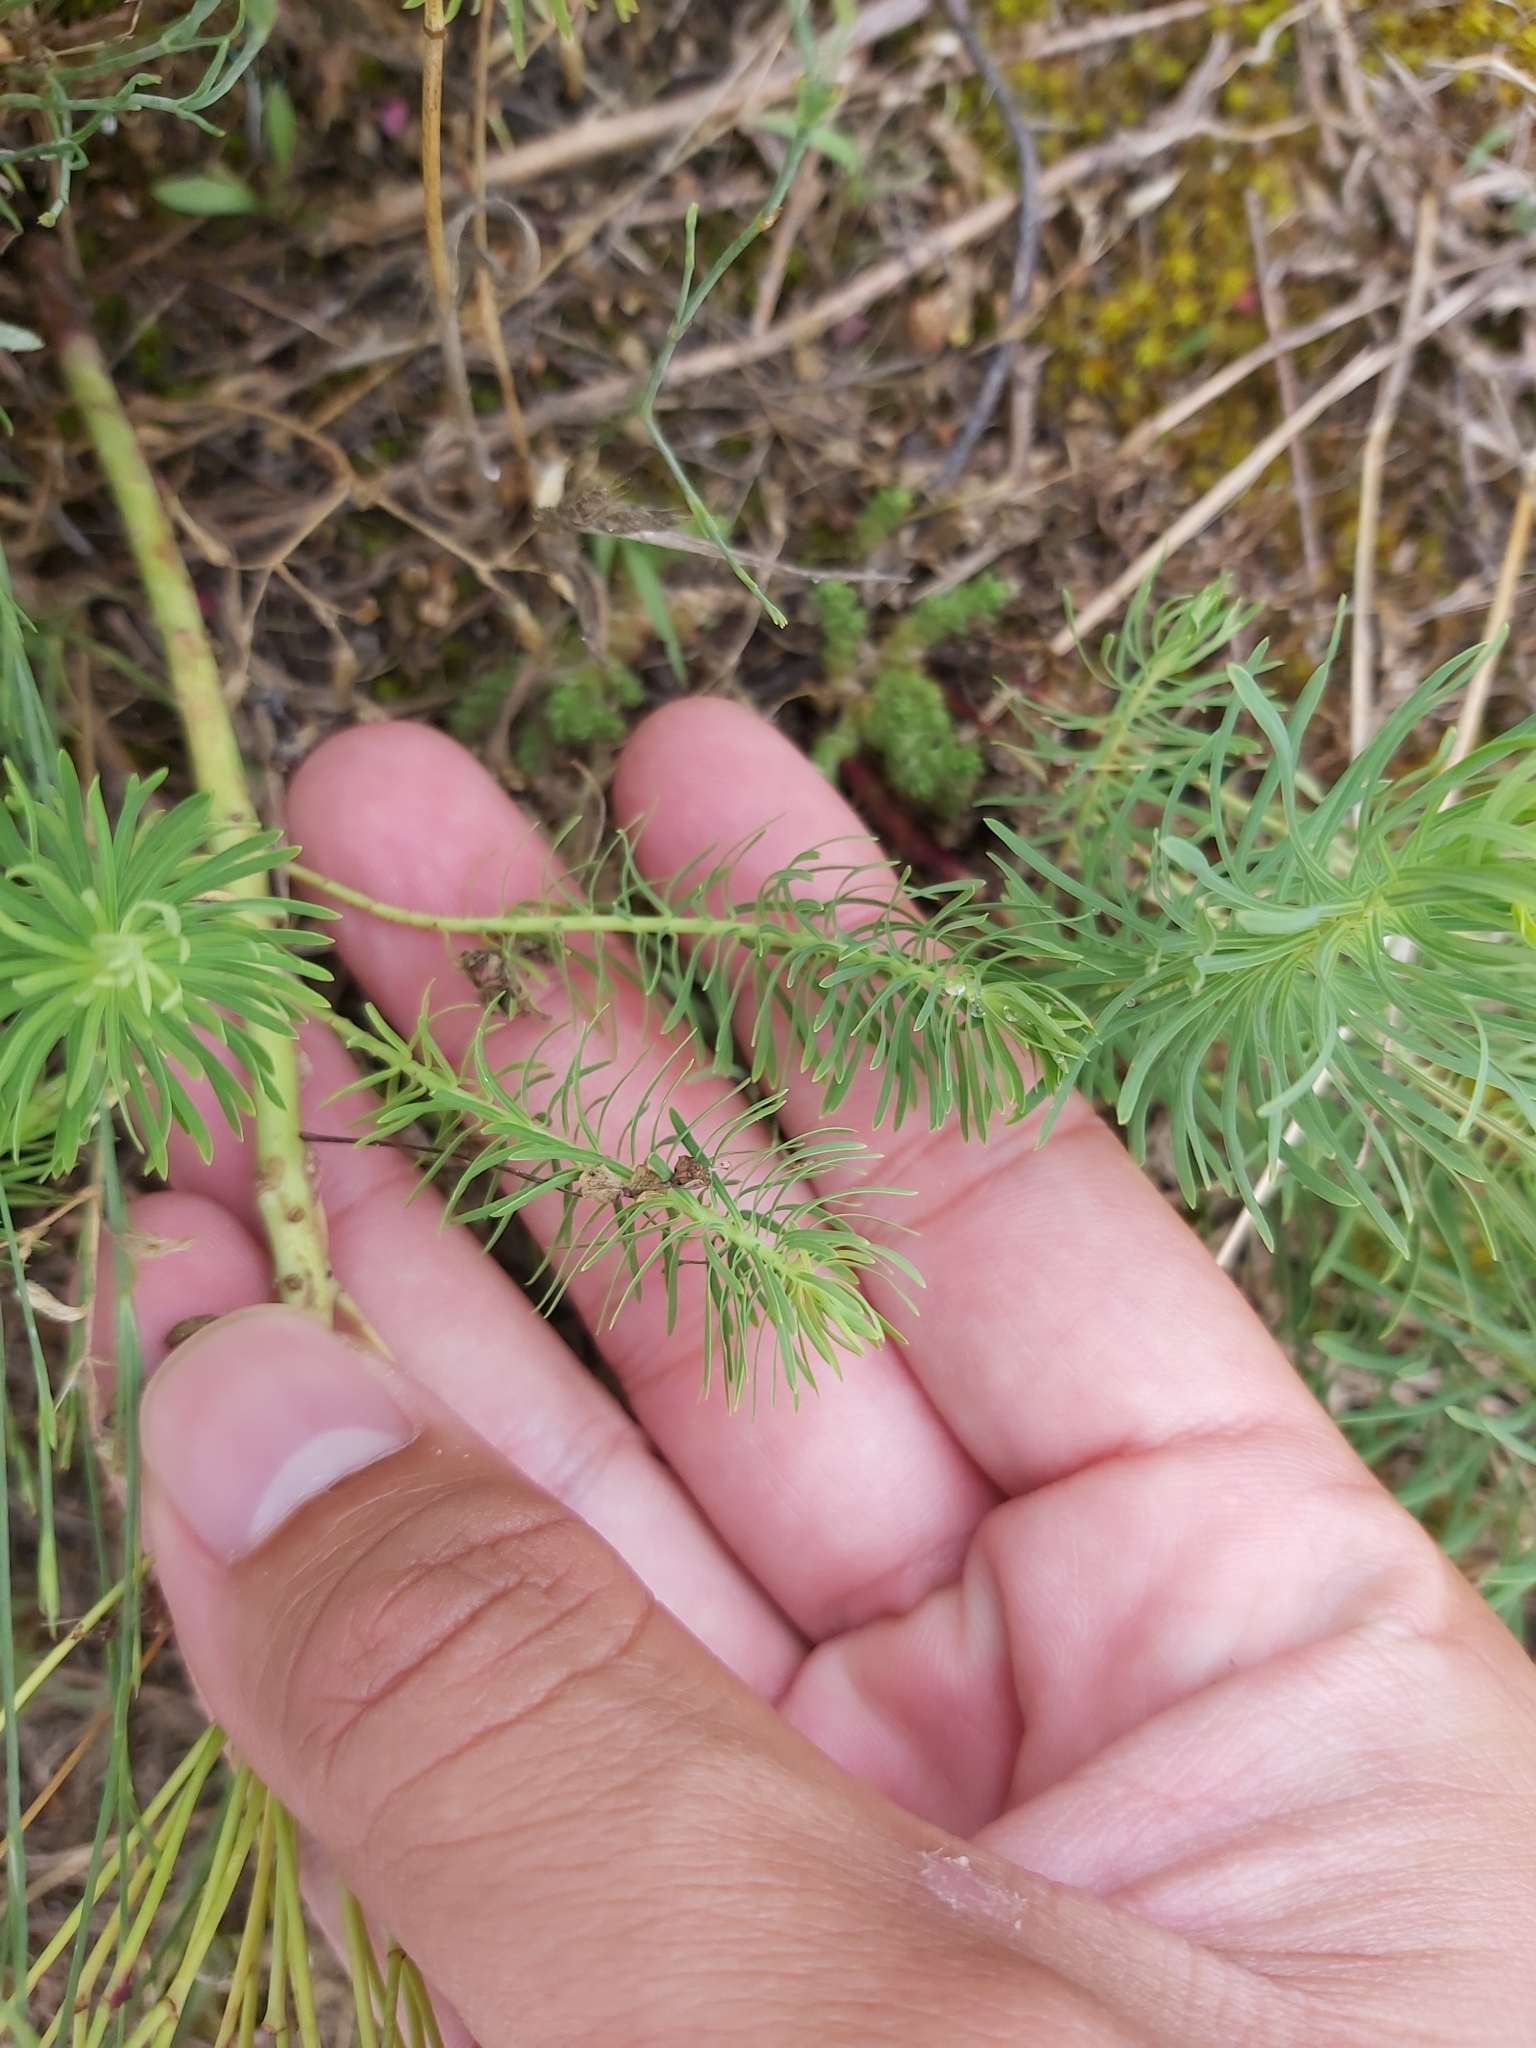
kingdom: Plantae
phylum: Tracheophyta
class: Magnoliopsida
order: Malpighiales
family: Euphorbiaceae
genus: Euphorbia
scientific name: Euphorbia cyparissias
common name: Cypress spurge
